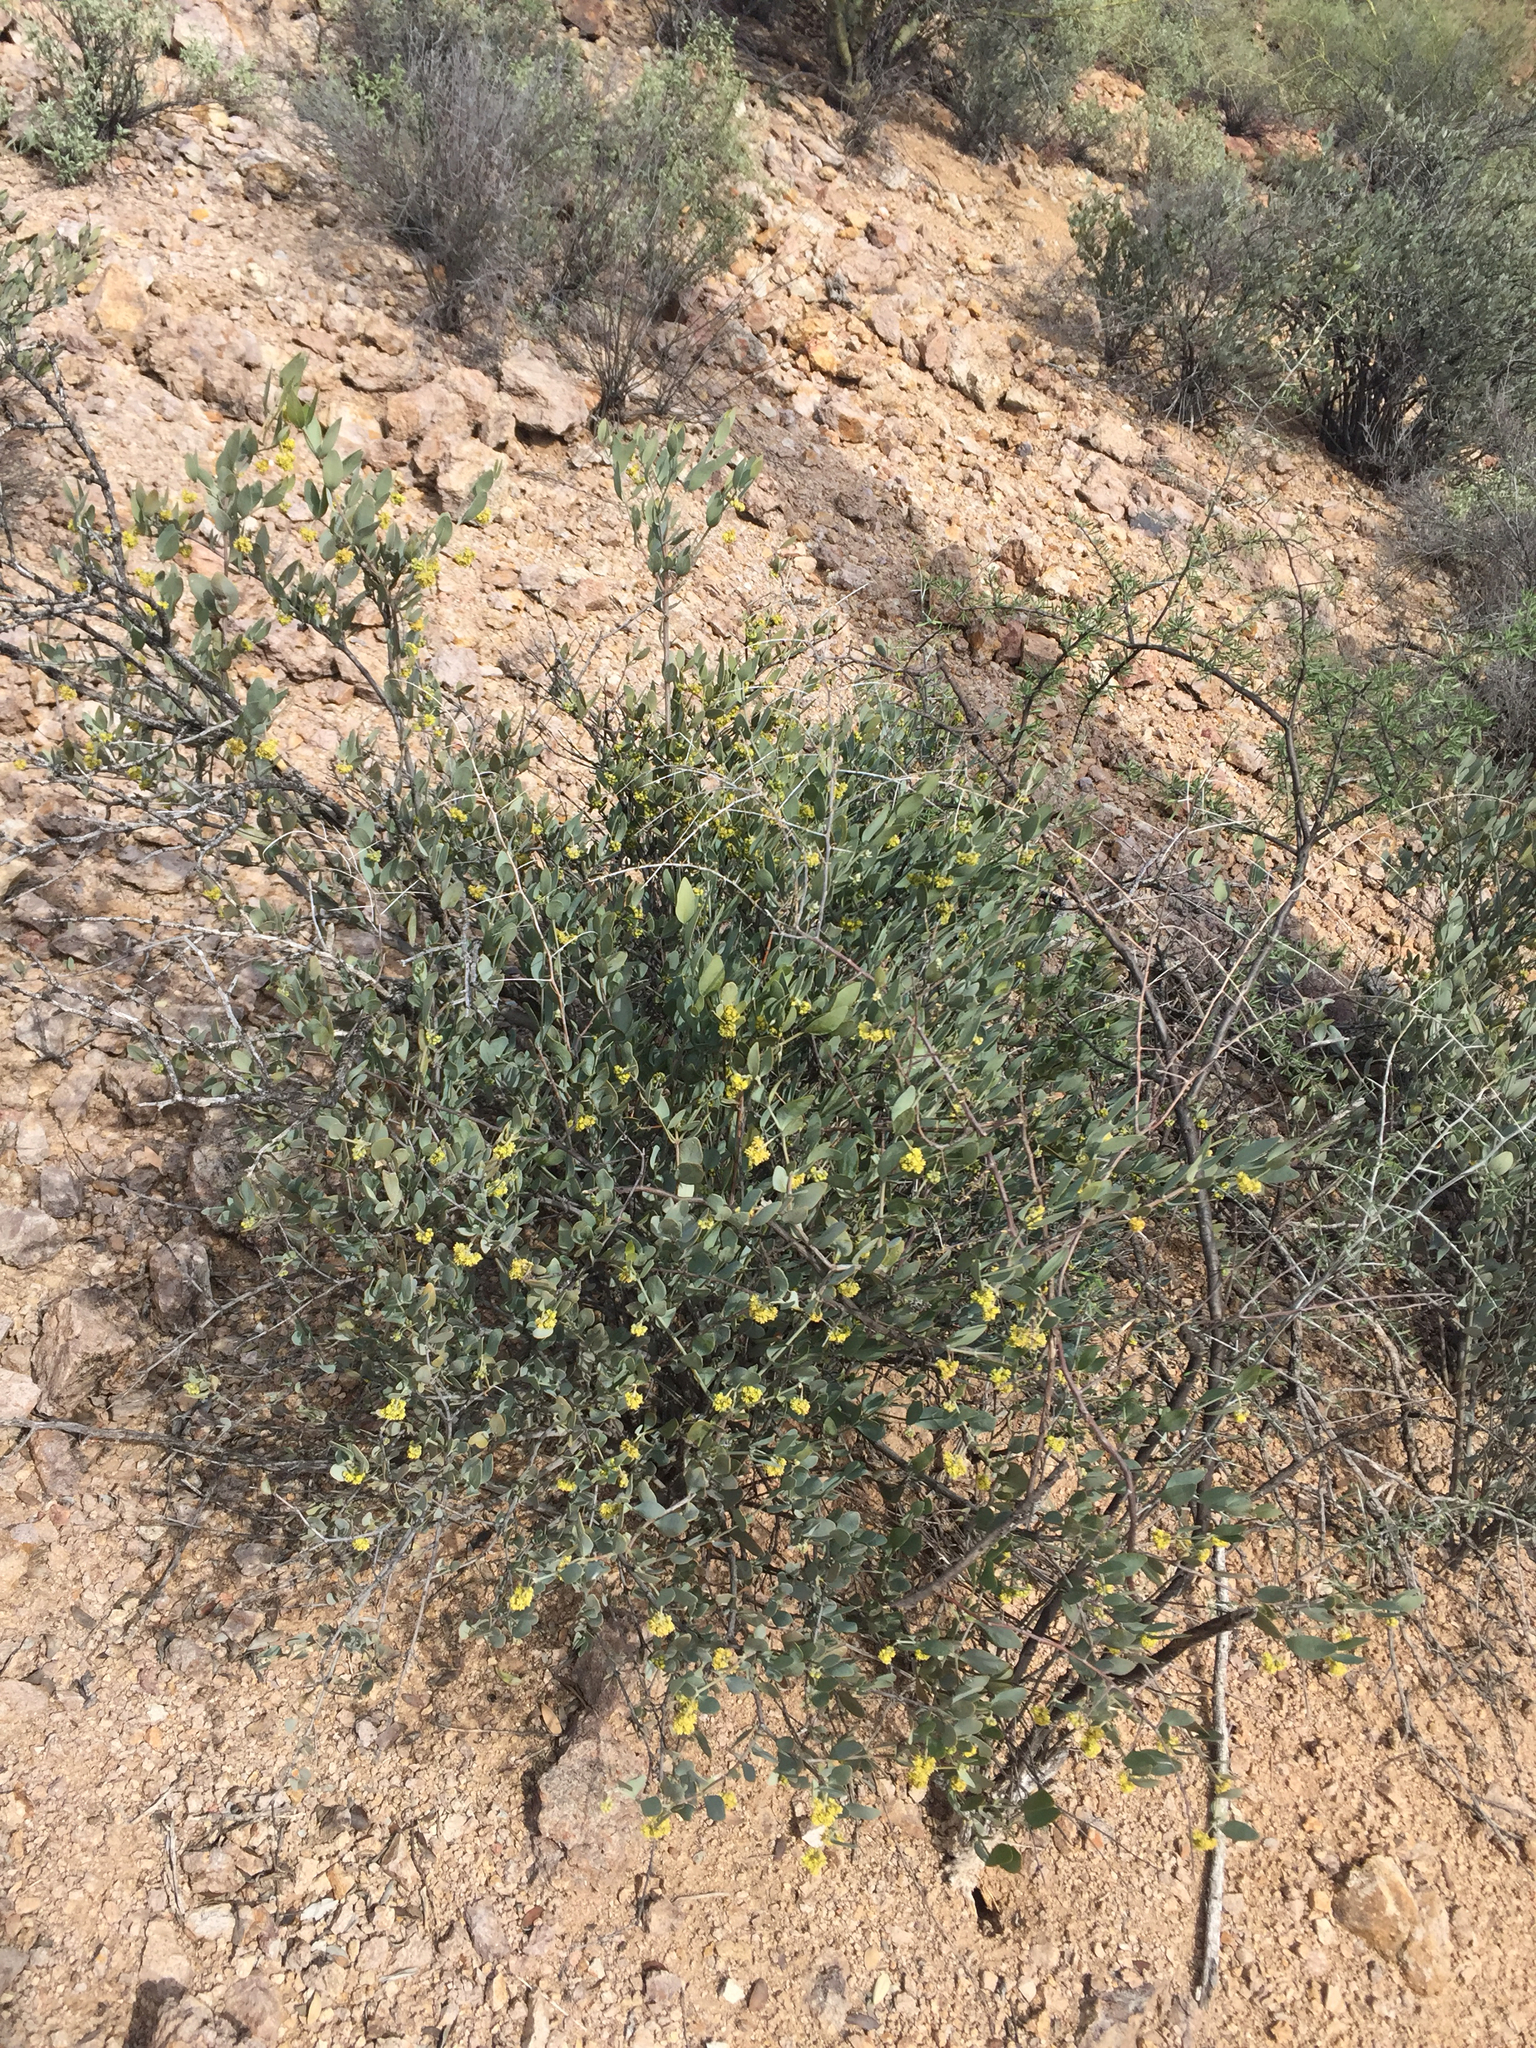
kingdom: Plantae
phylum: Tracheophyta
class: Magnoliopsida
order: Caryophyllales
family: Simmondsiaceae
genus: Simmondsia
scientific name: Simmondsia chinensis
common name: Jojoba
